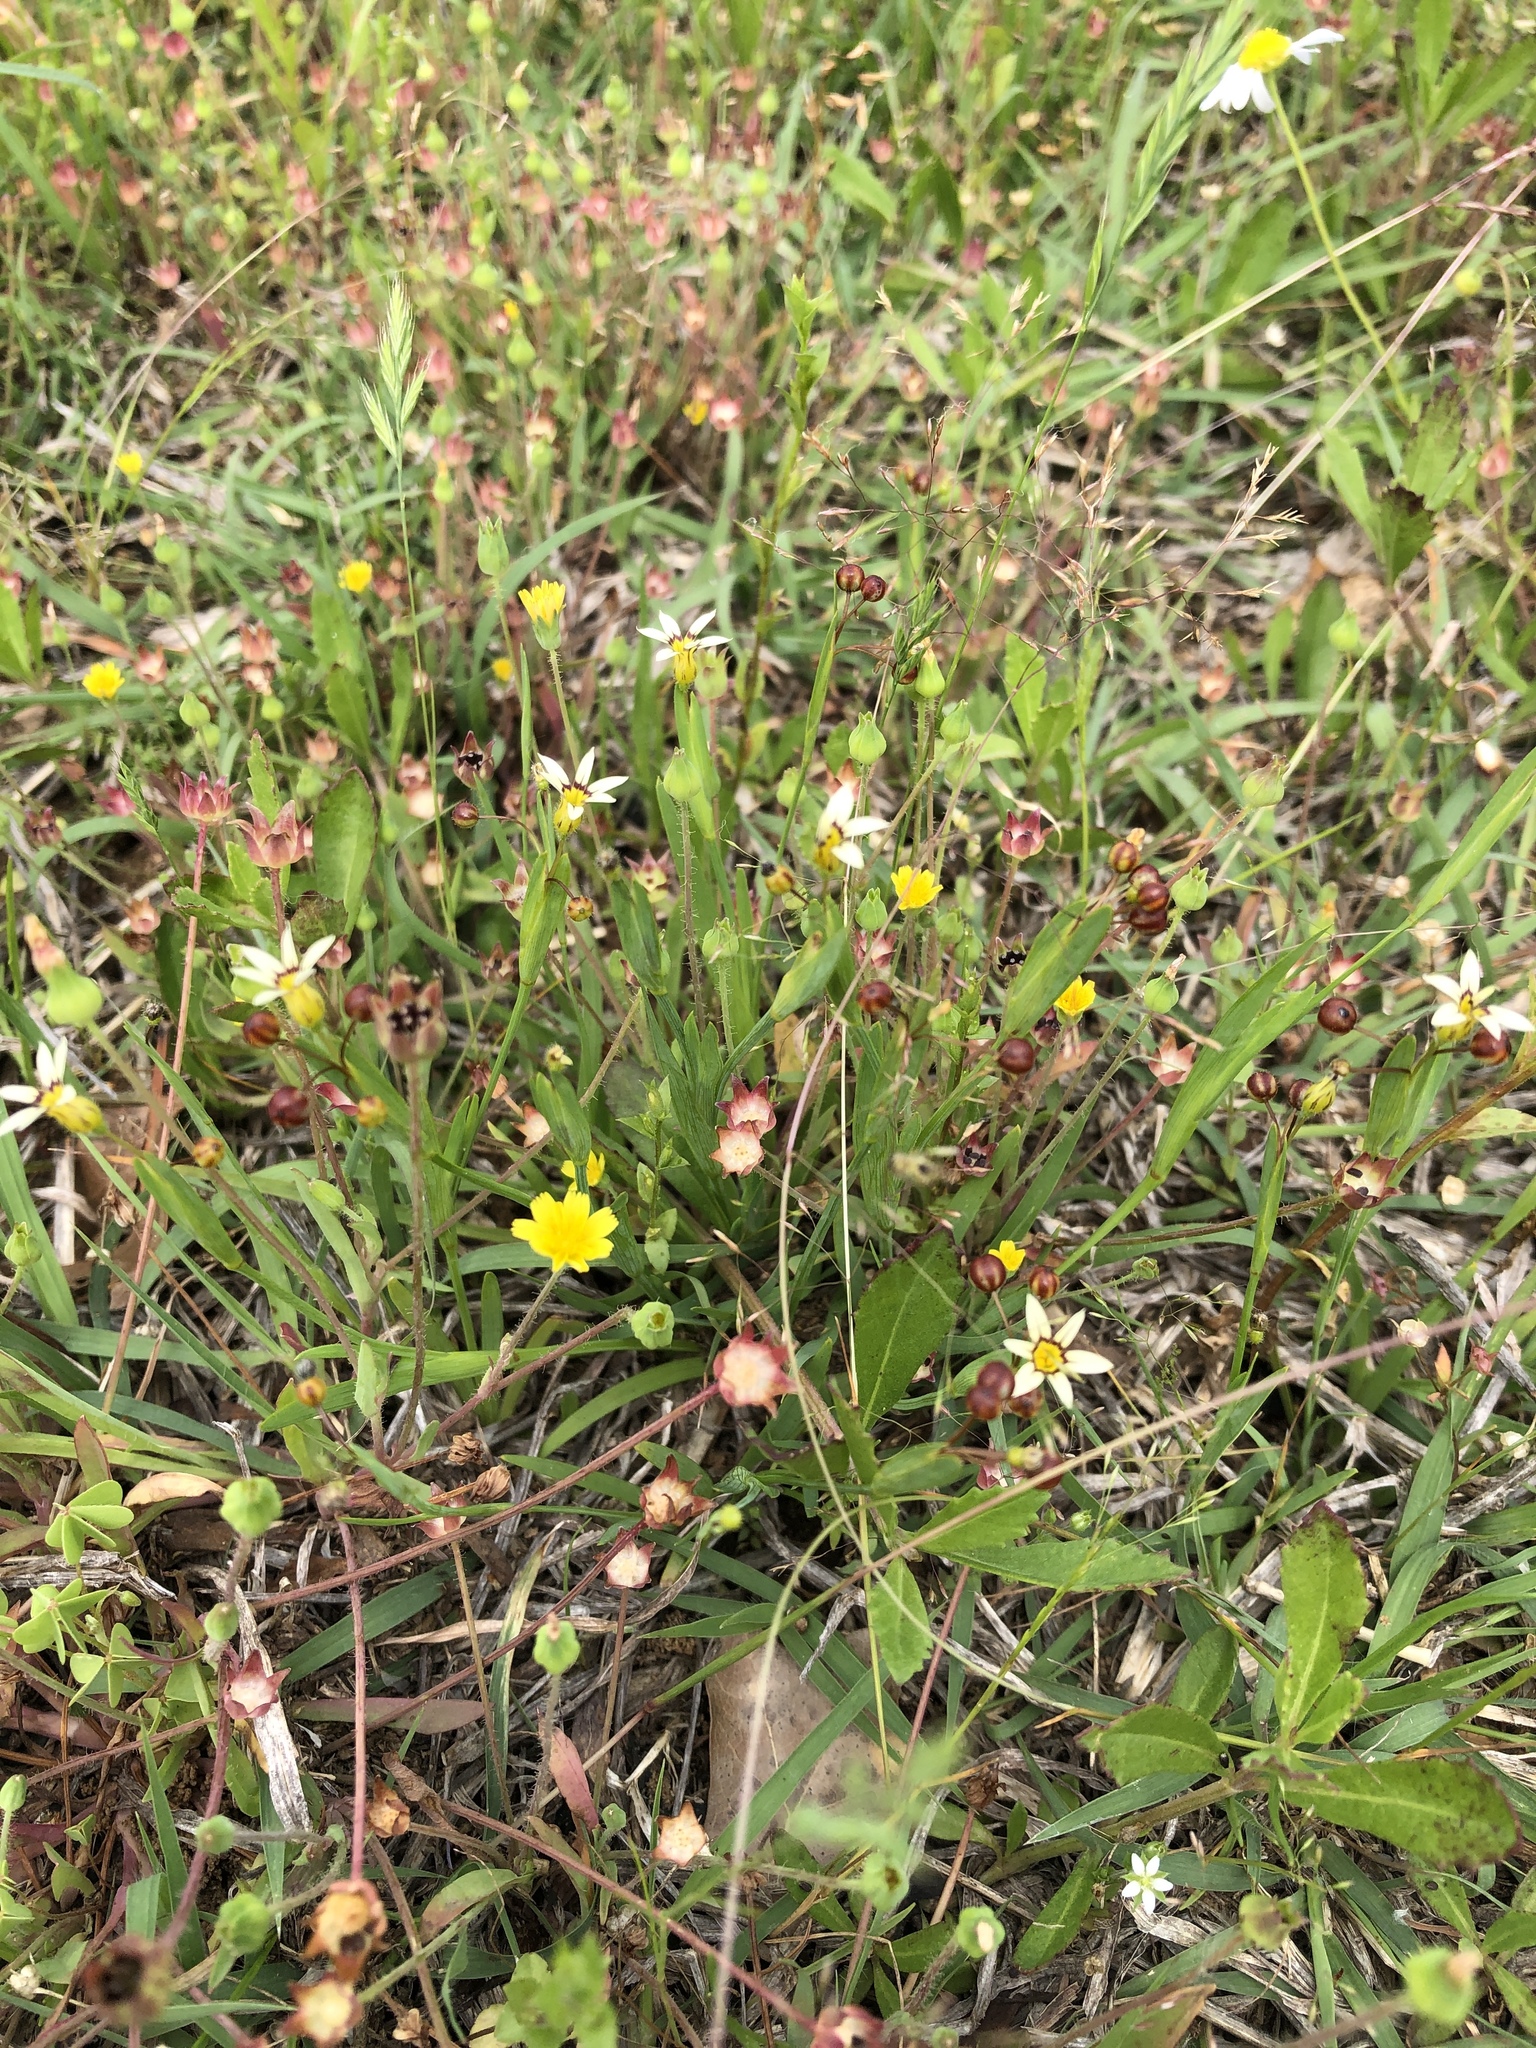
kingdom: Plantae
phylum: Tracheophyta
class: Liliopsida
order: Asparagales
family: Iridaceae
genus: Sisyrinchium
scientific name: Sisyrinchium micranthum
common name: Bermuda pigroot
